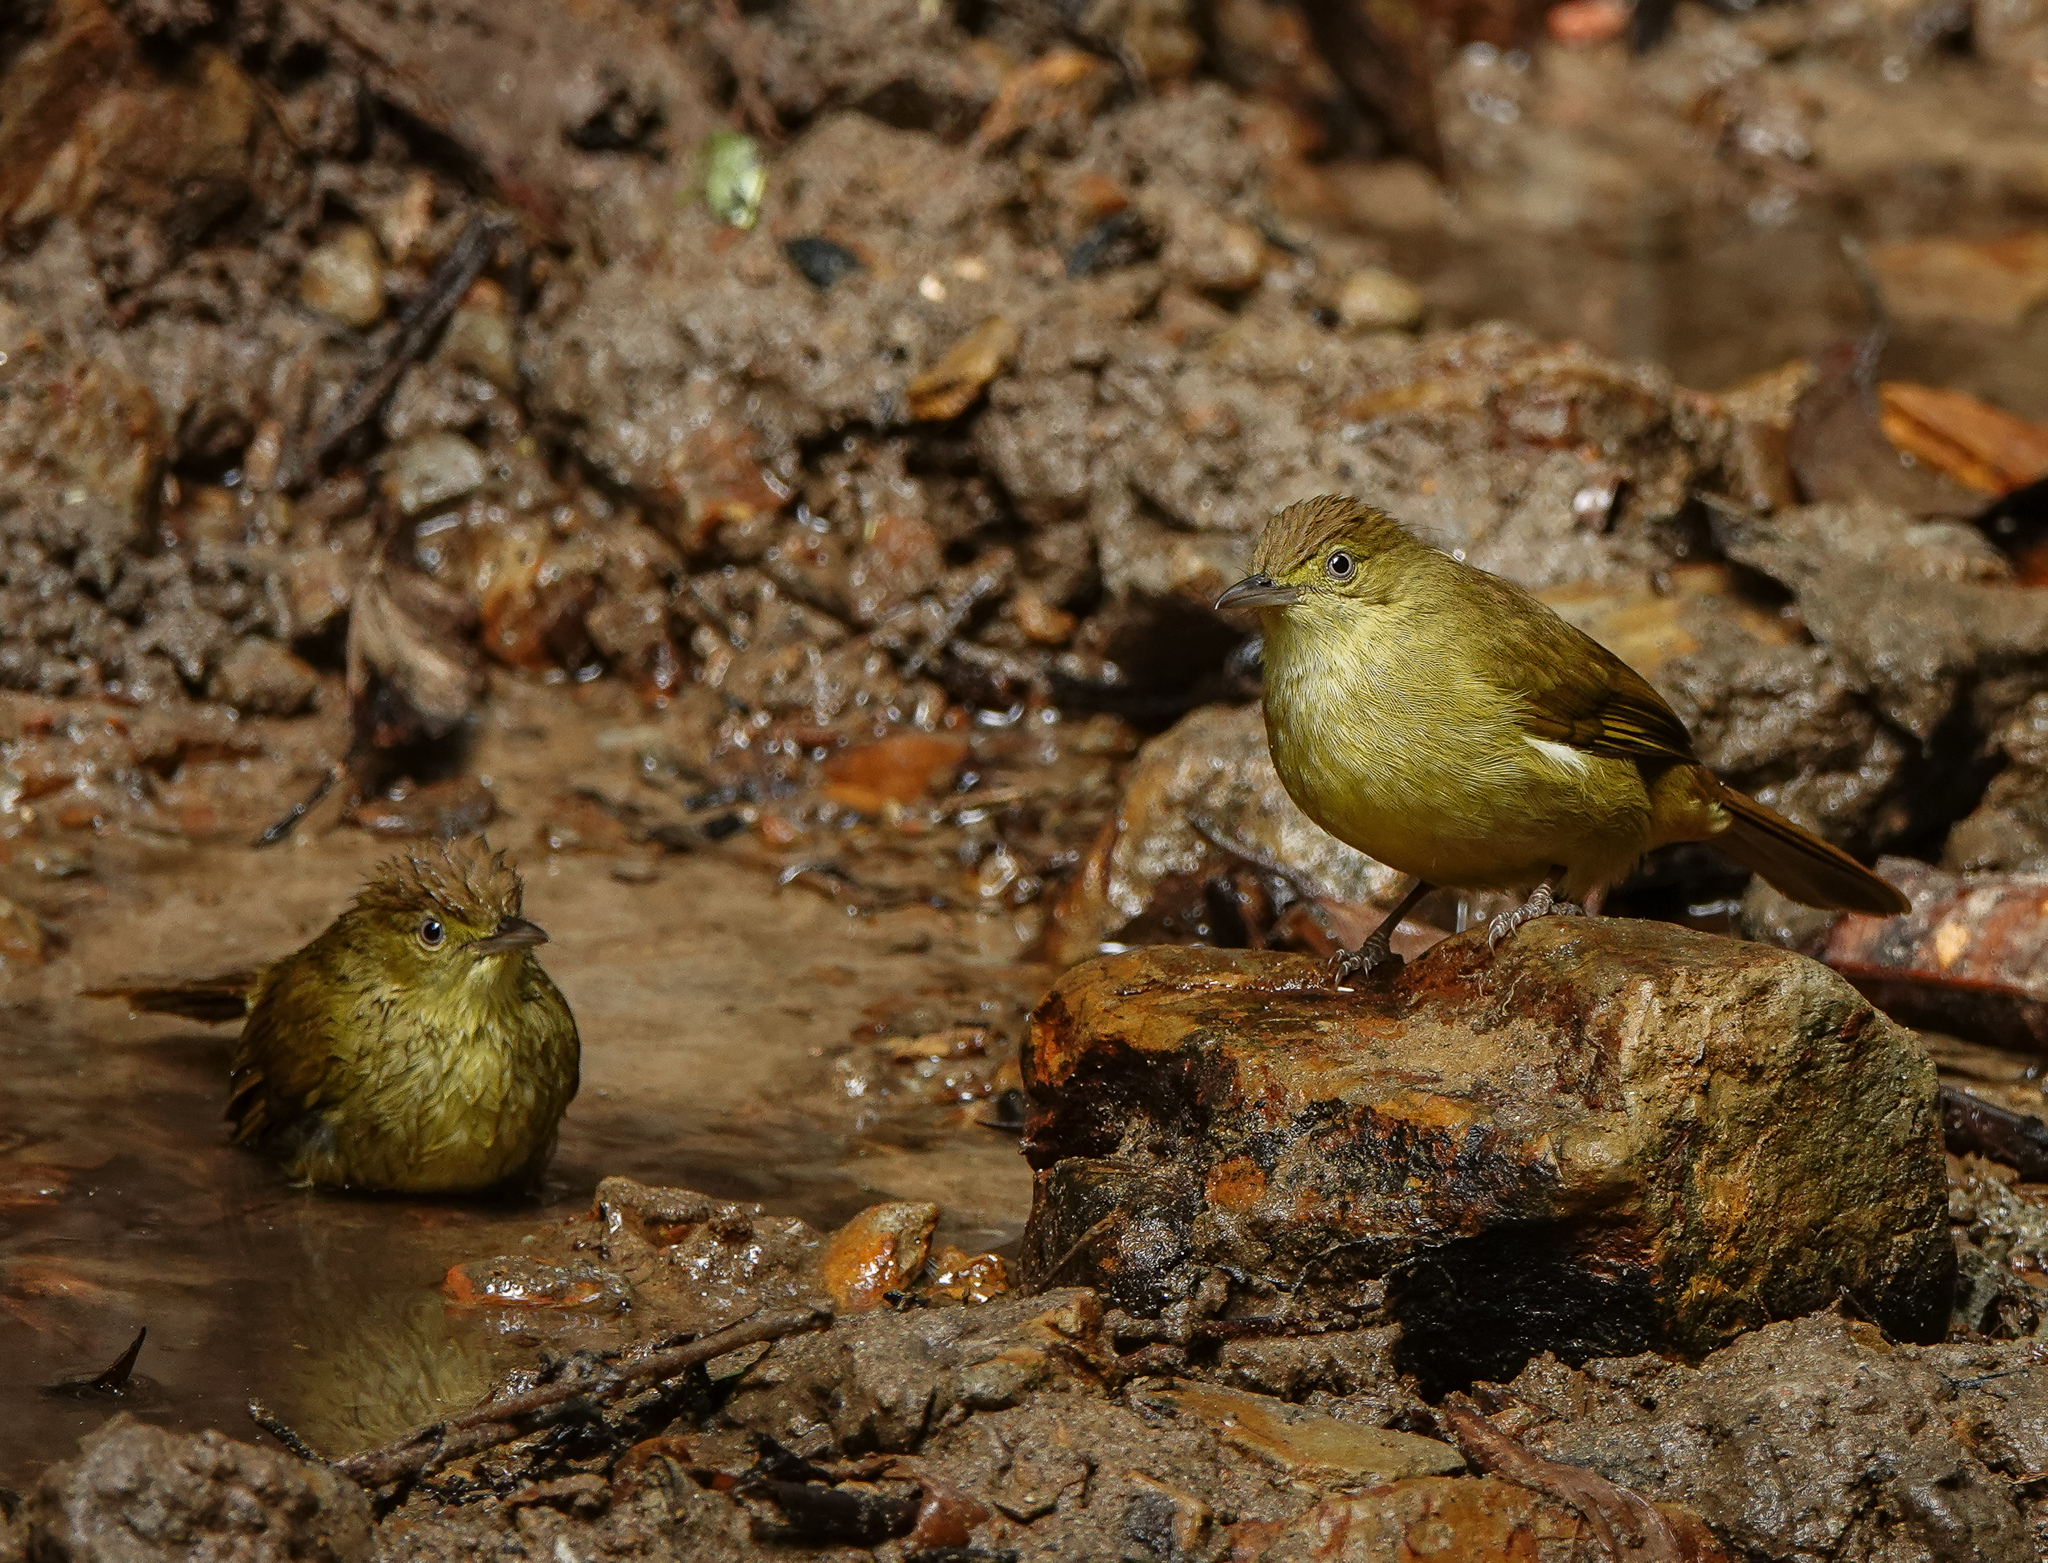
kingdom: Animalia
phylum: Chordata
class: Aves
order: Passeriformes
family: Pycnonotidae
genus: Iole
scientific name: Iole virescens
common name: Olive bulbul
